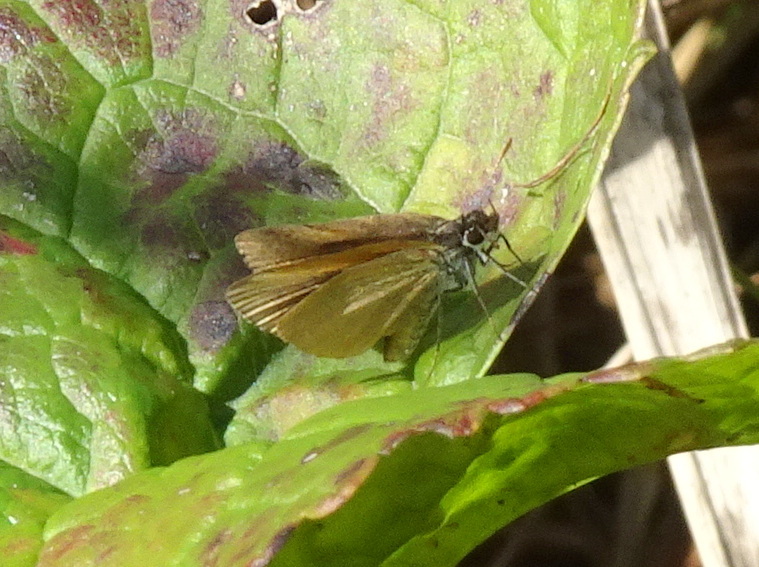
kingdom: Animalia
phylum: Arthropoda
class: Insecta
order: Lepidoptera
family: Hesperiidae
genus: Ancyloxypha
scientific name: Ancyloxypha numitor
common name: Least skipper
